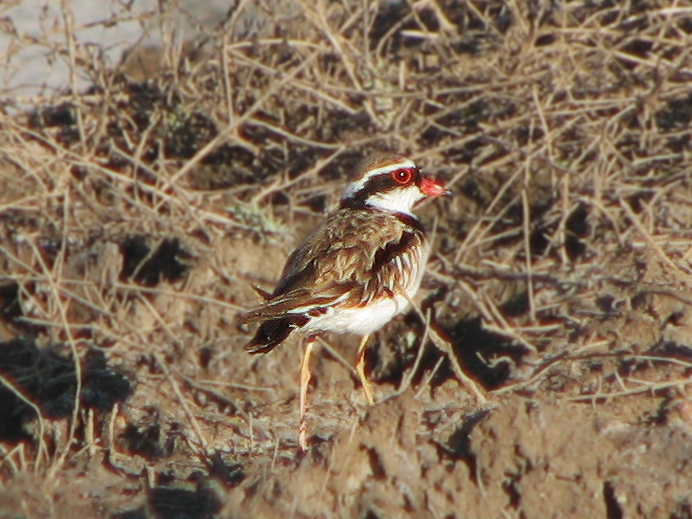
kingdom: Animalia
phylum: Chordata
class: Aves
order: Charadriiformes
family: Charadriidae
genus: Elseyornis
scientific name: Elseyornis melanops
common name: Black-fronted dotterel
